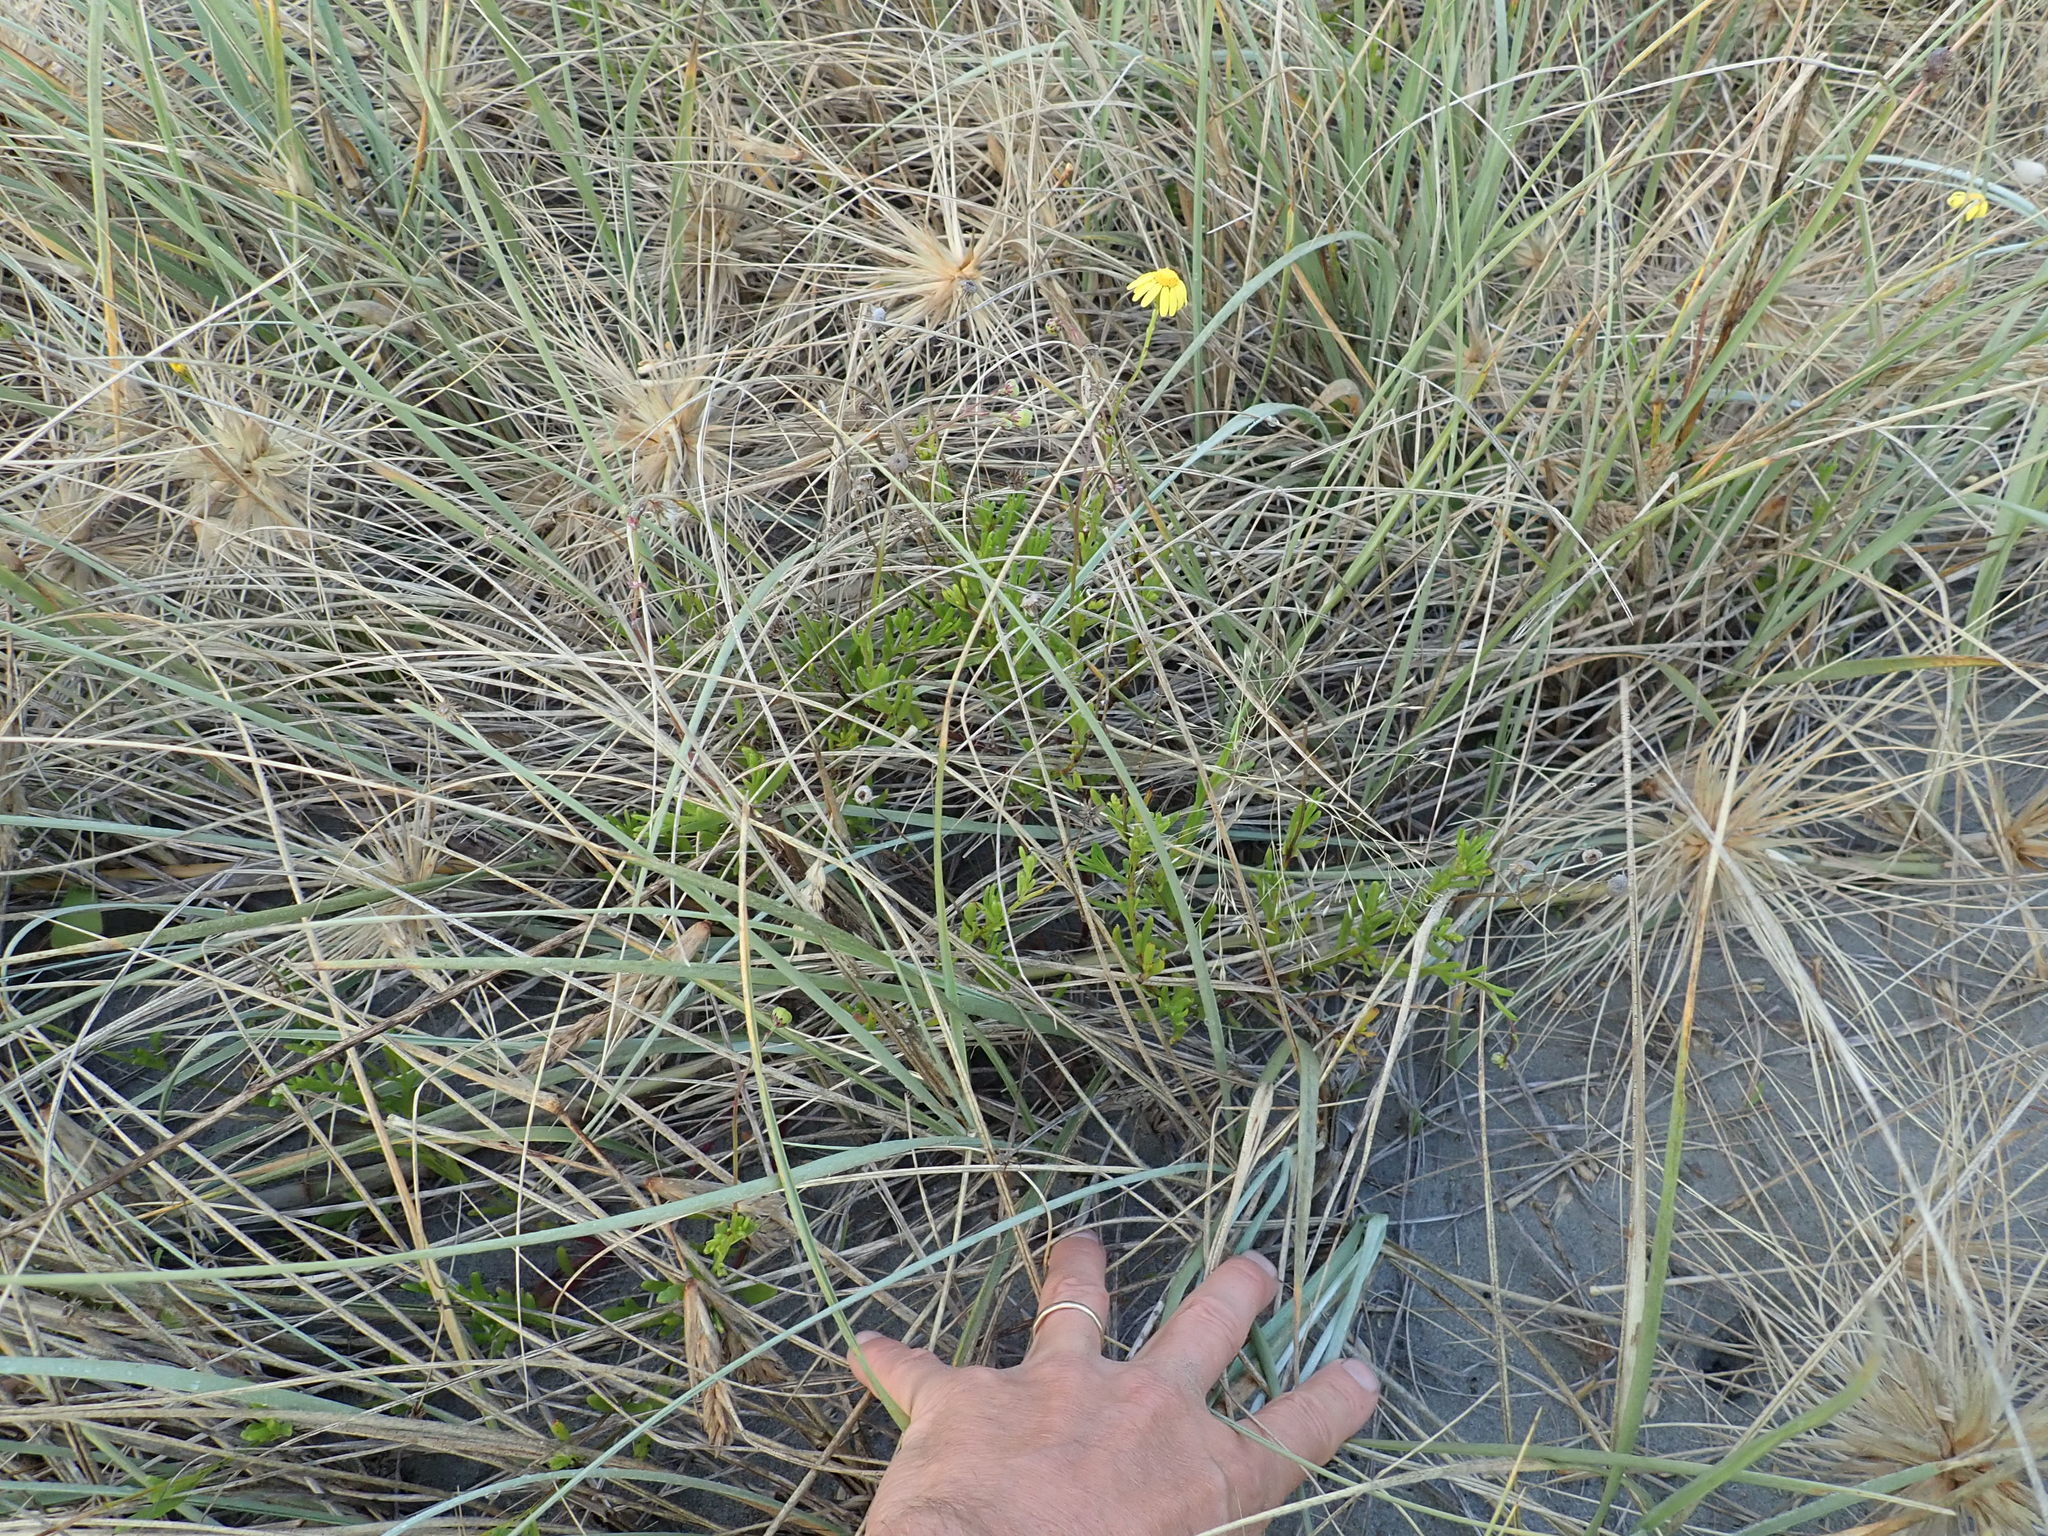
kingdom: Plantae
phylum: Tracheophyta
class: Magnoliopsida
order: Asterales
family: Asteraceae
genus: Senecio
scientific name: Senecio skirrhodon
